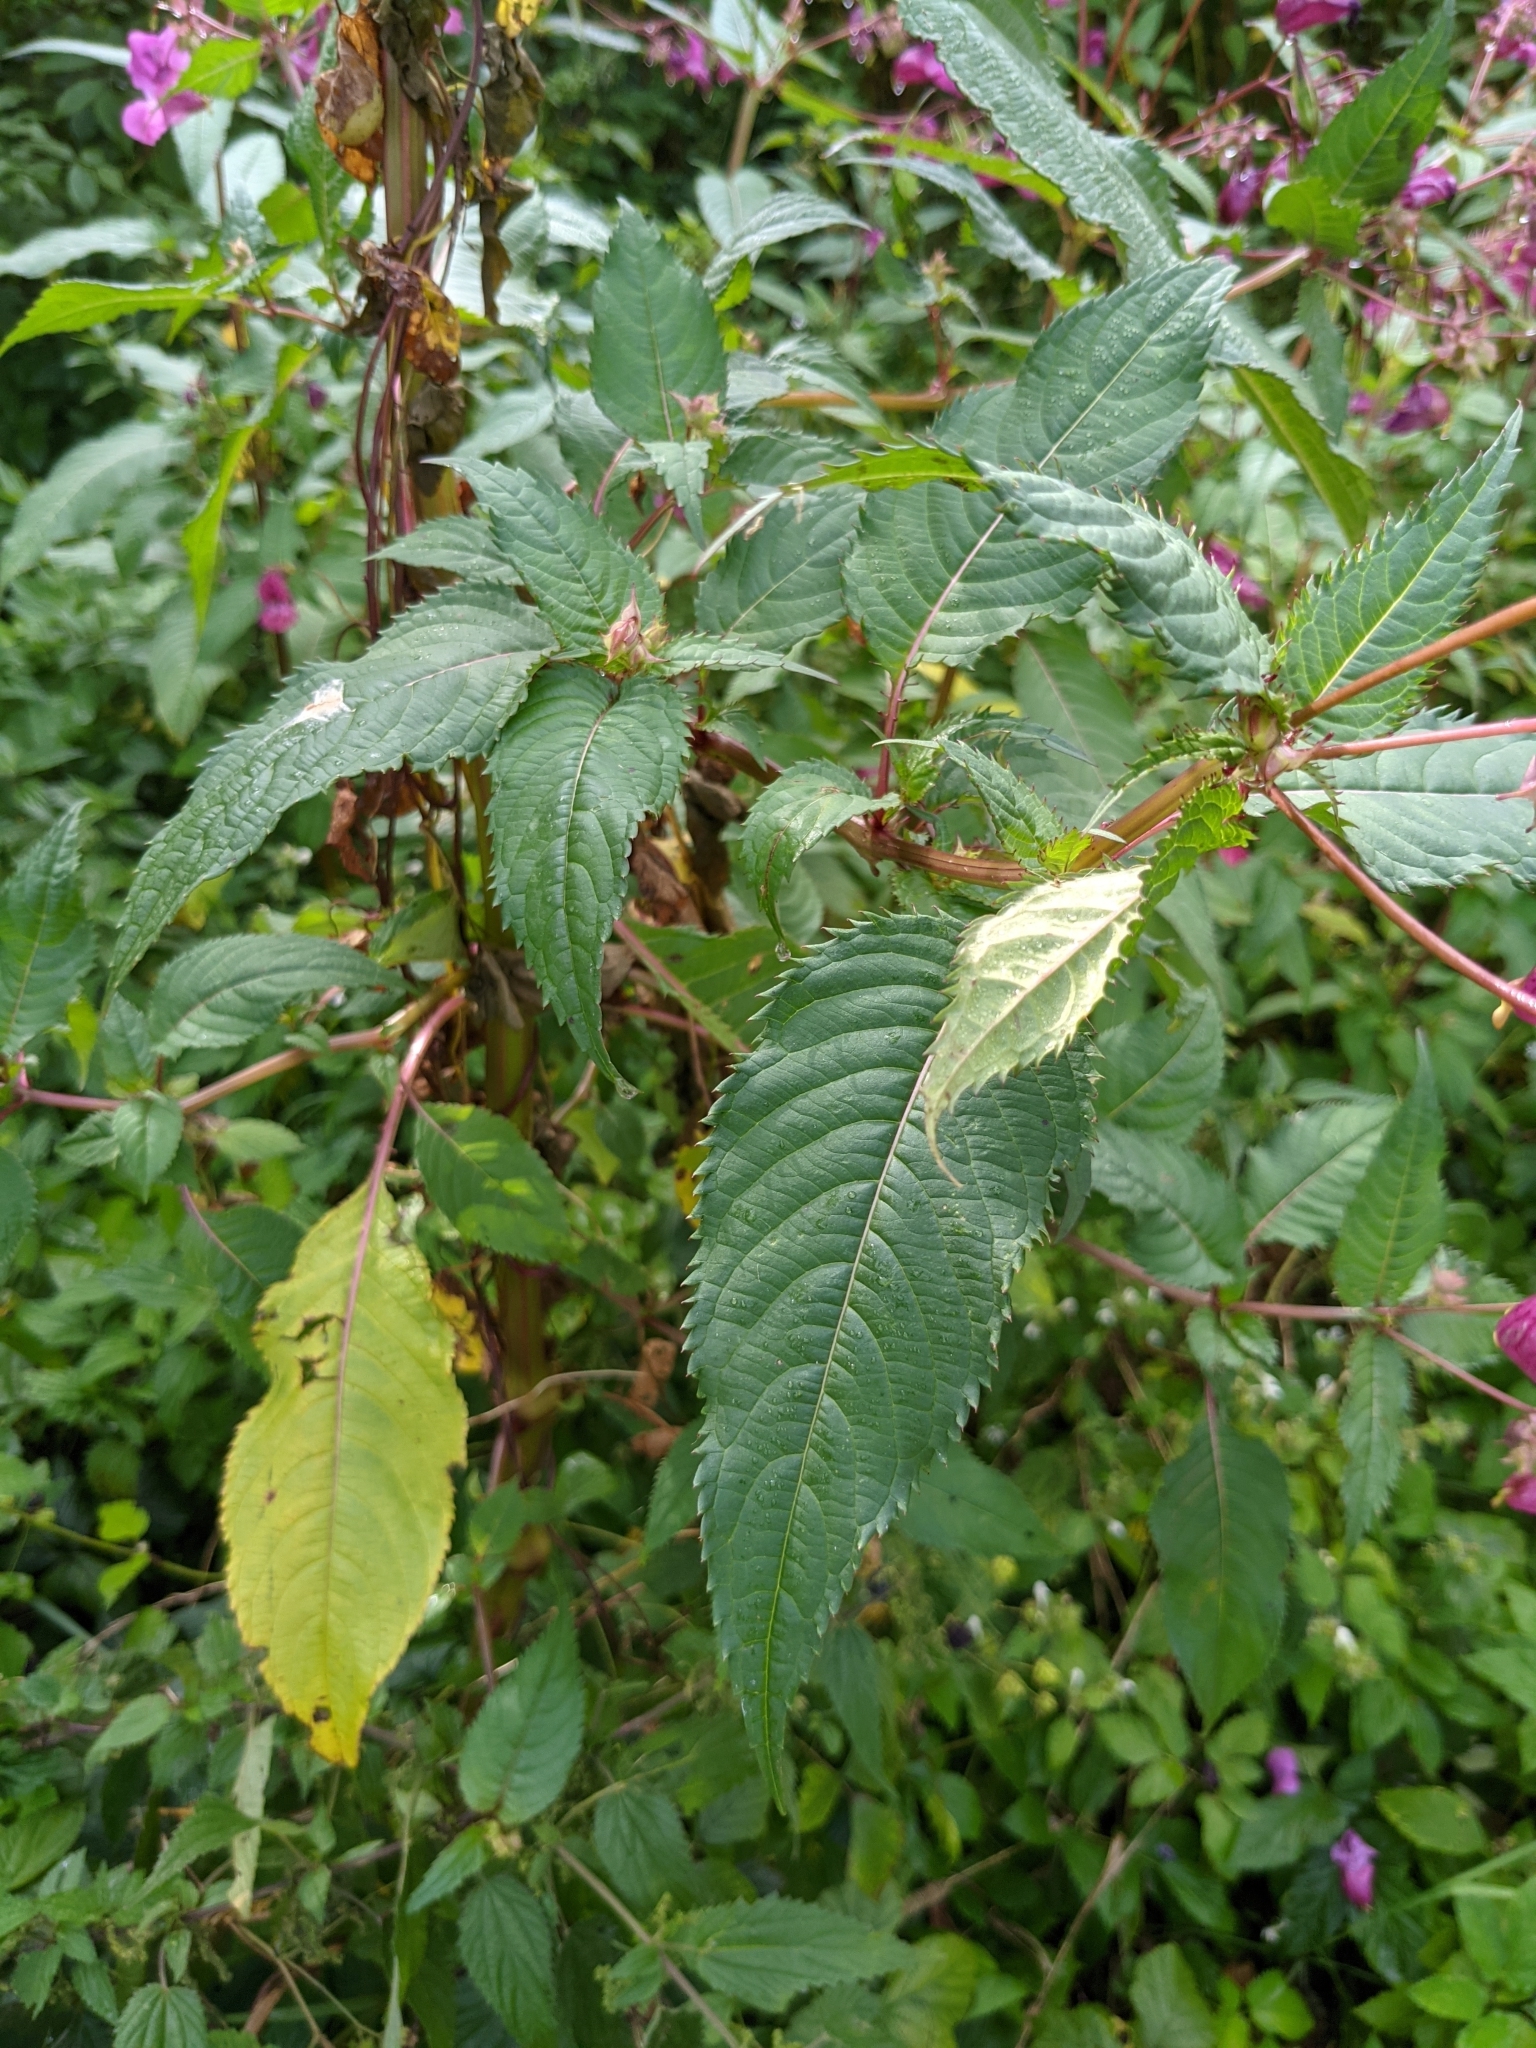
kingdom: Plantae
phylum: Tracheophyta
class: Magnoliopsida
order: Ericales
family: Balsaminaceae
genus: Impatiens
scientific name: Impatiens glandulifera
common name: Himalayan balsam
